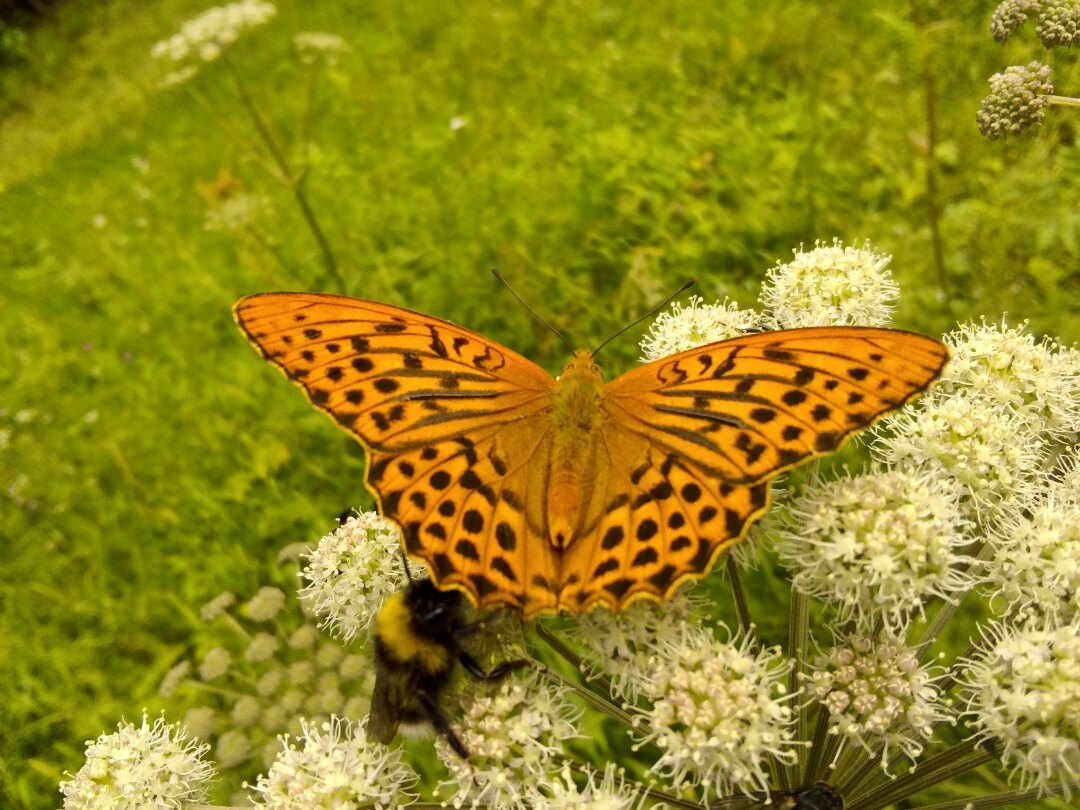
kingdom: Animalia
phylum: Arthropoda
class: Insecta
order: Lepidoptera
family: Nymphalidae
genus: Argynnis
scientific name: Argynnis paphia
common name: Silver-washed fritillary
